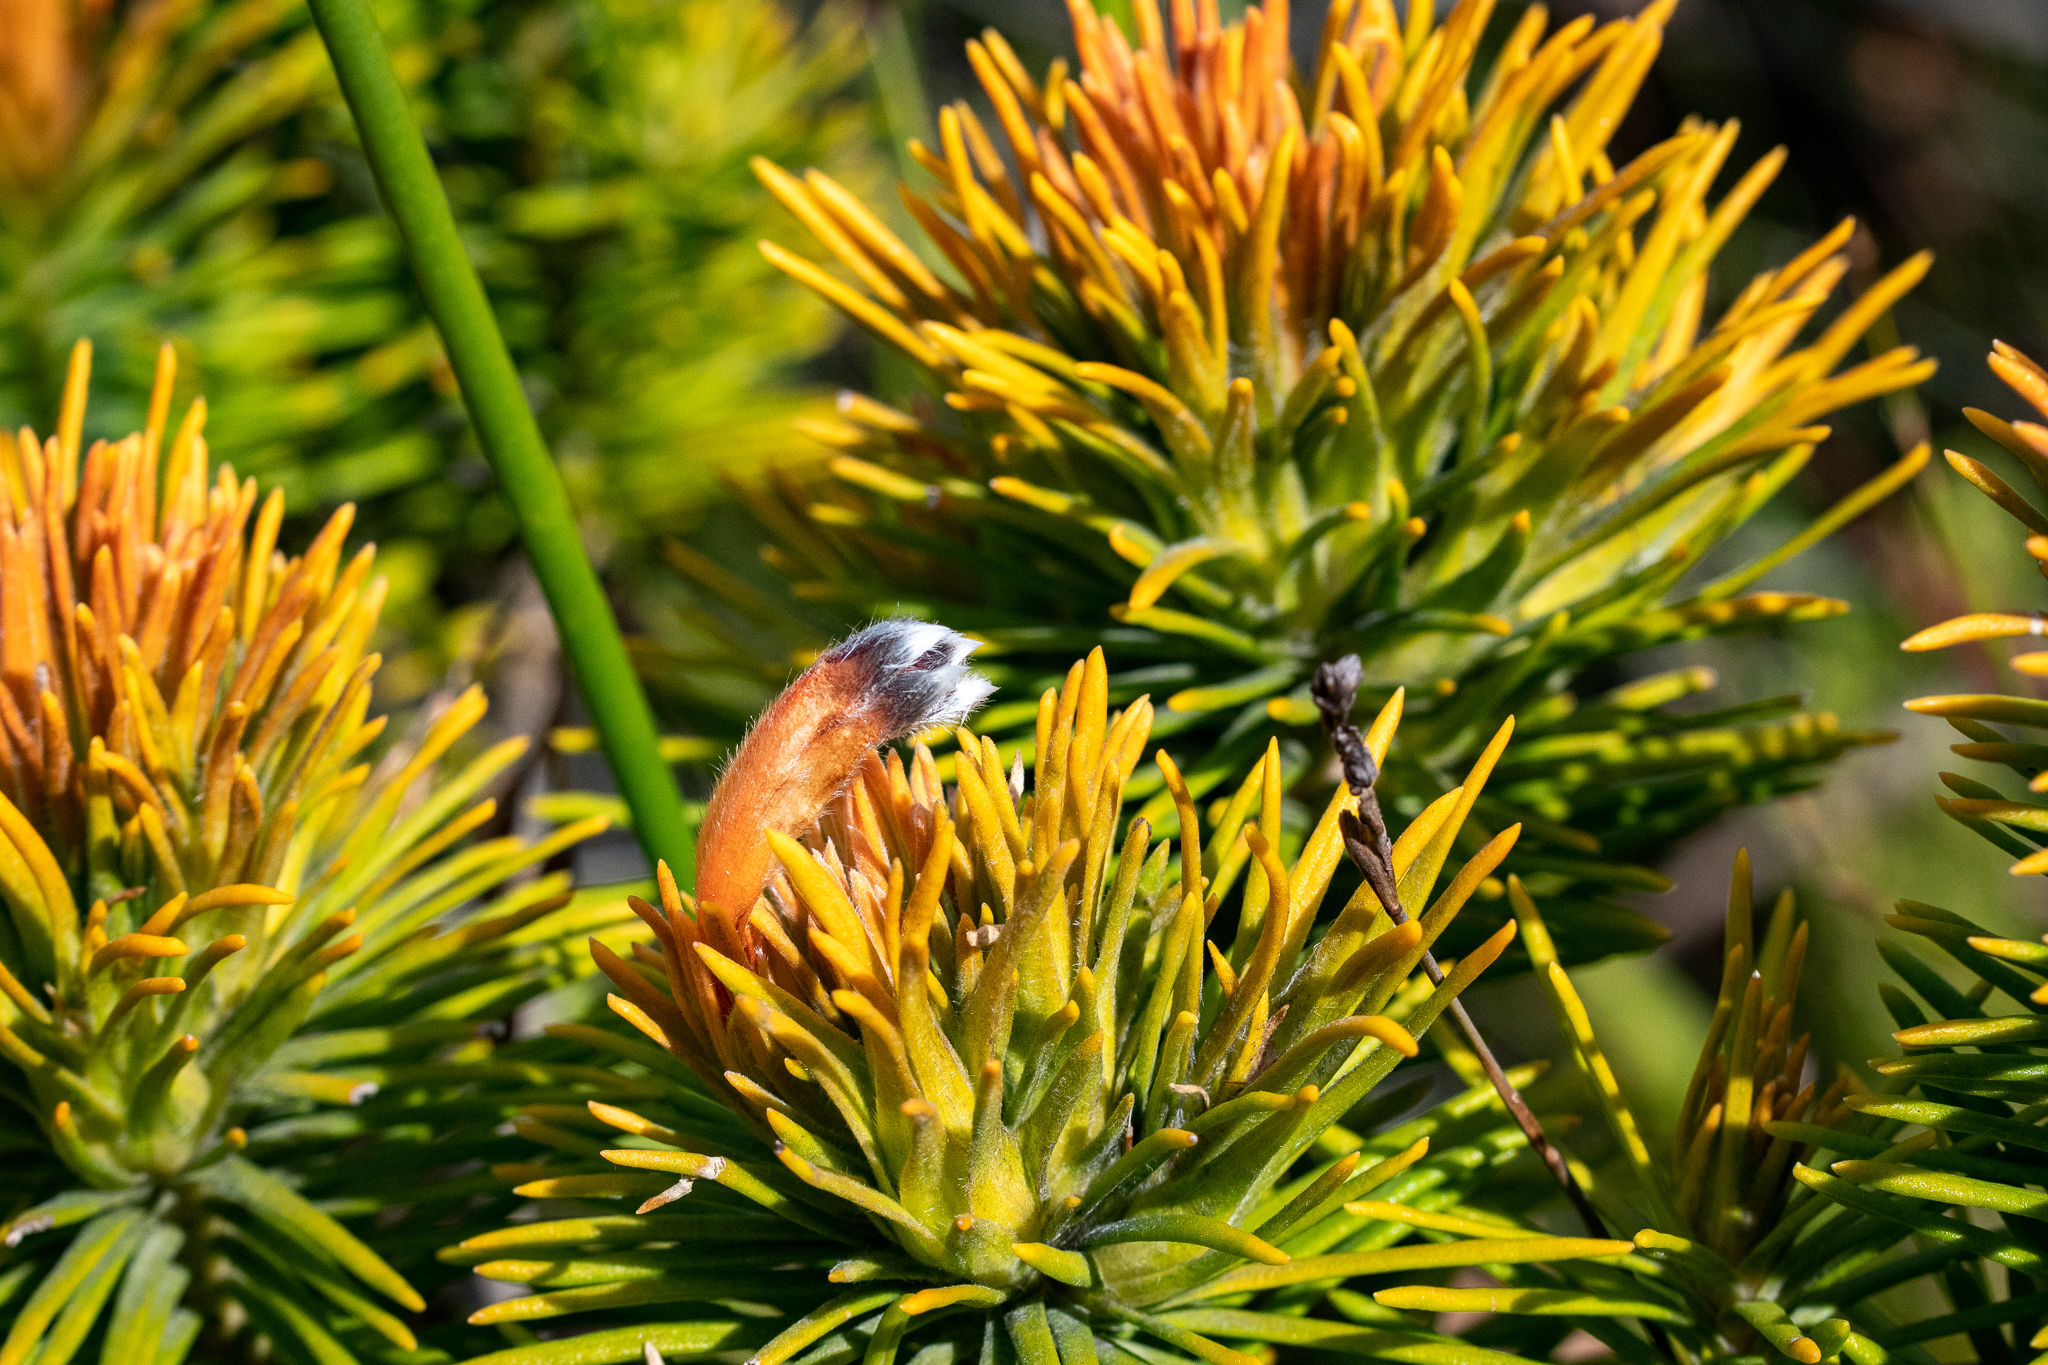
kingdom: Plantae
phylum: Tracheophyta
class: Magnoliopsida
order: Lamiales
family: Stilbaceae
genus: Retzia
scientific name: Retzia capensis
